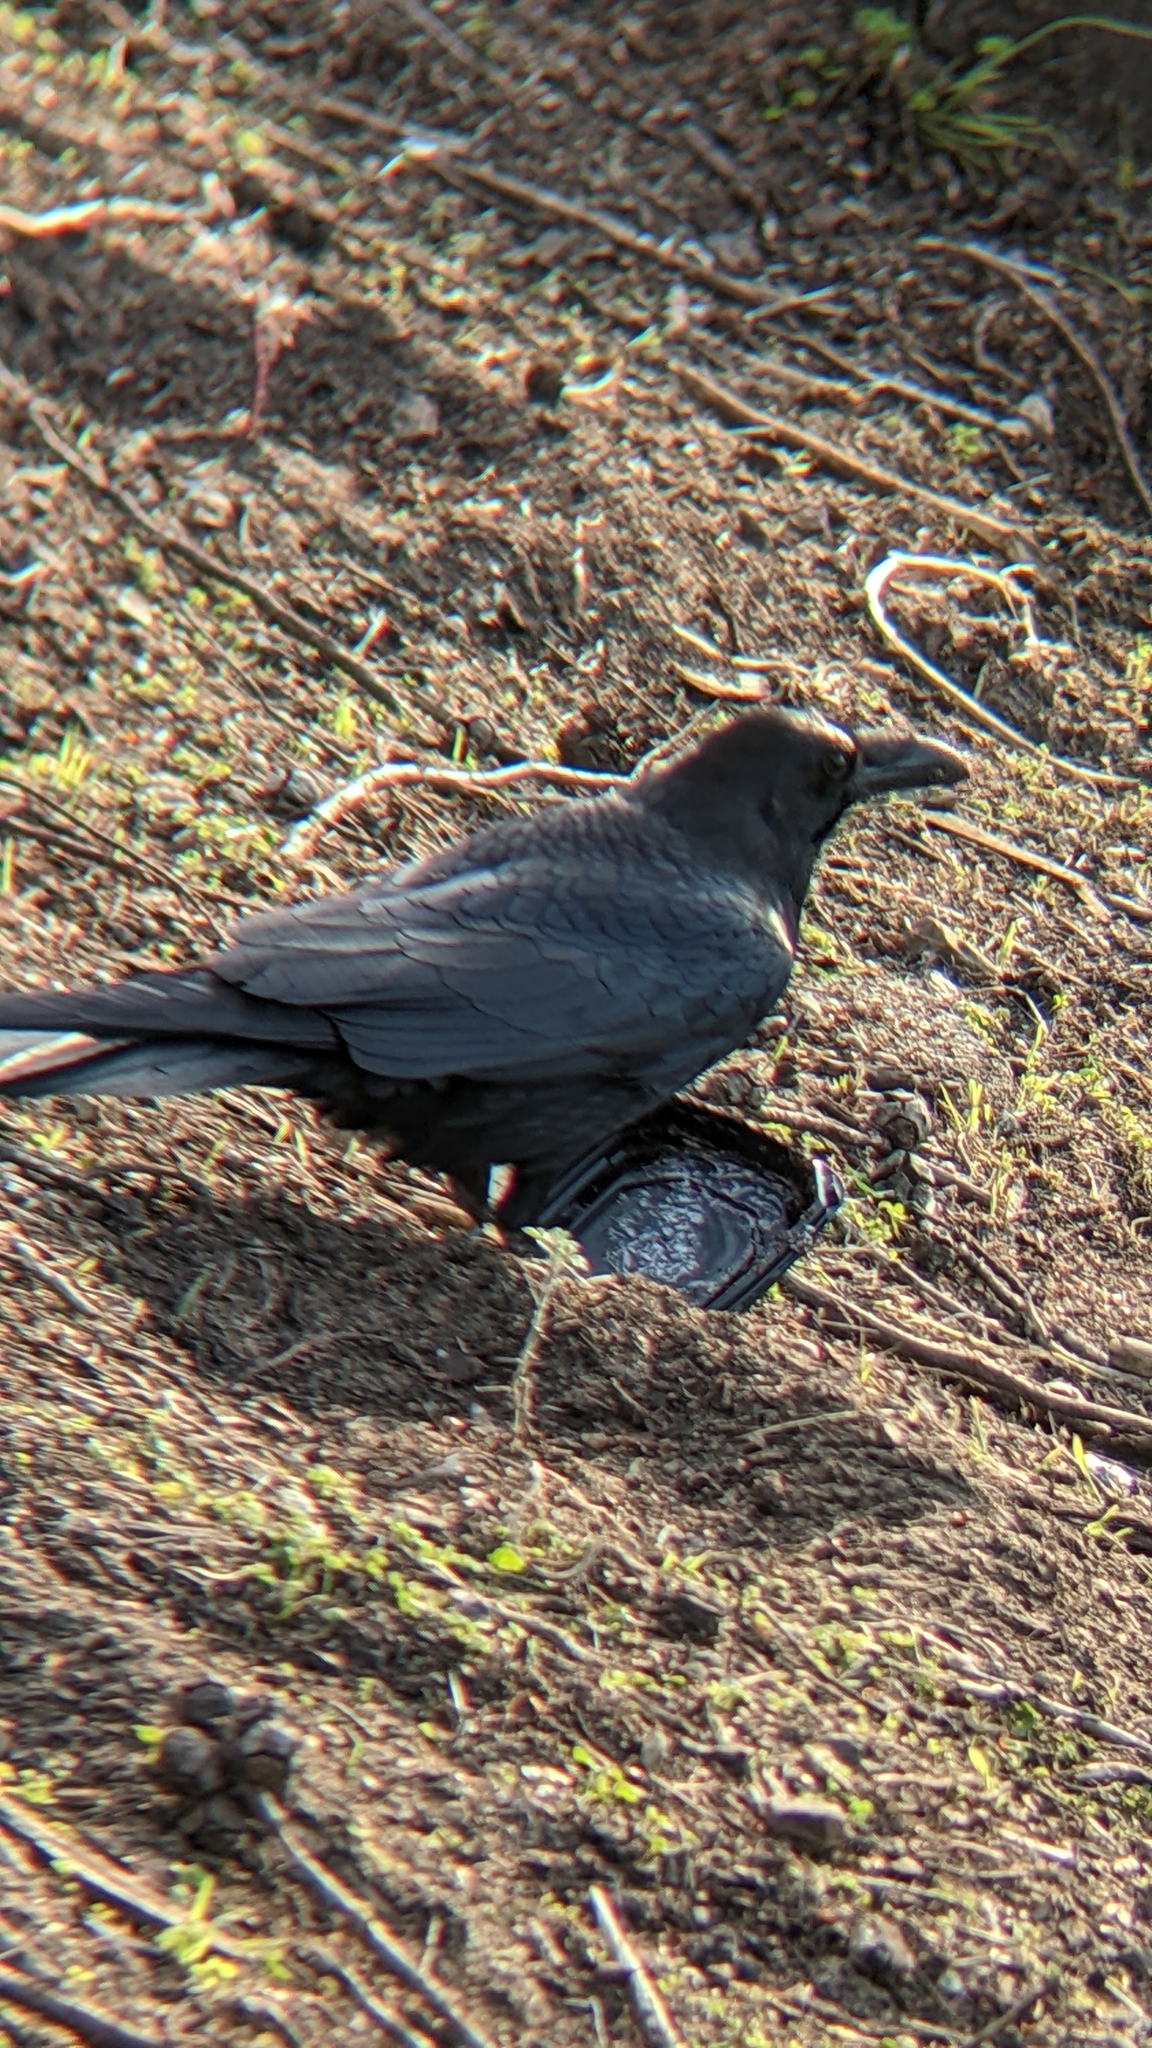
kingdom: Animalia
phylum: Chordata
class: Aves
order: Passeriformes
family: Corvidae
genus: Corvus
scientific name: Corvus corax
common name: Common raven
